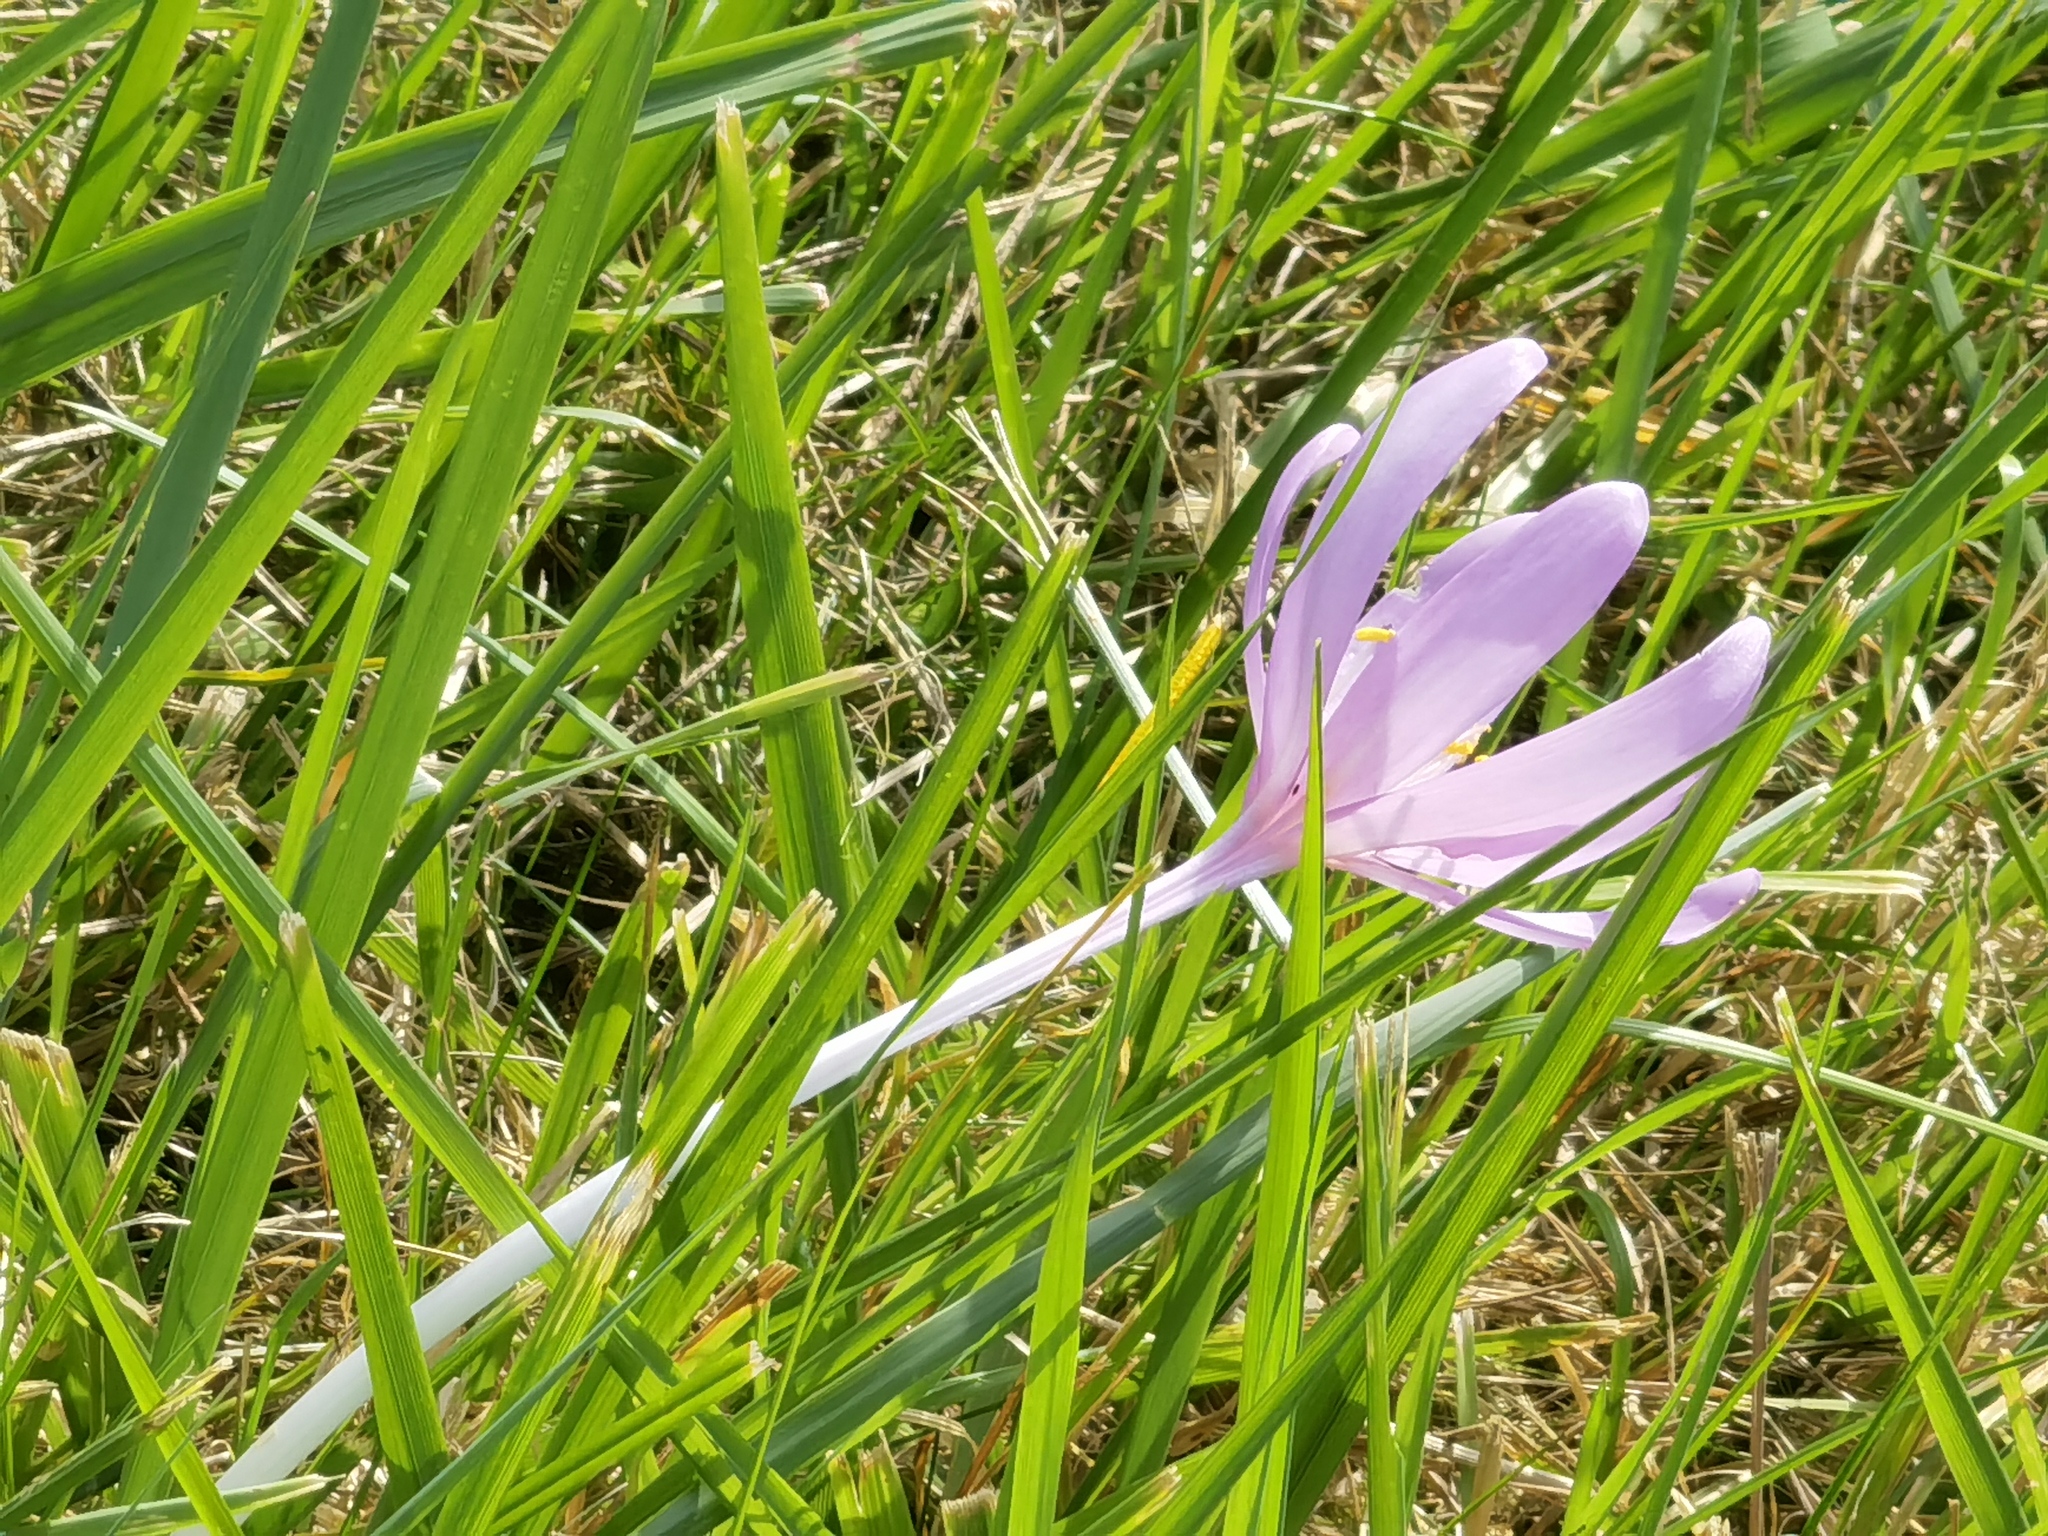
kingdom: Plantae
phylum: Tracheophyta
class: Liliopsida
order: Liliales
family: Colchicaceae
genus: Colchicum
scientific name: Colchicum autumnale
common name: Autumn crocus
